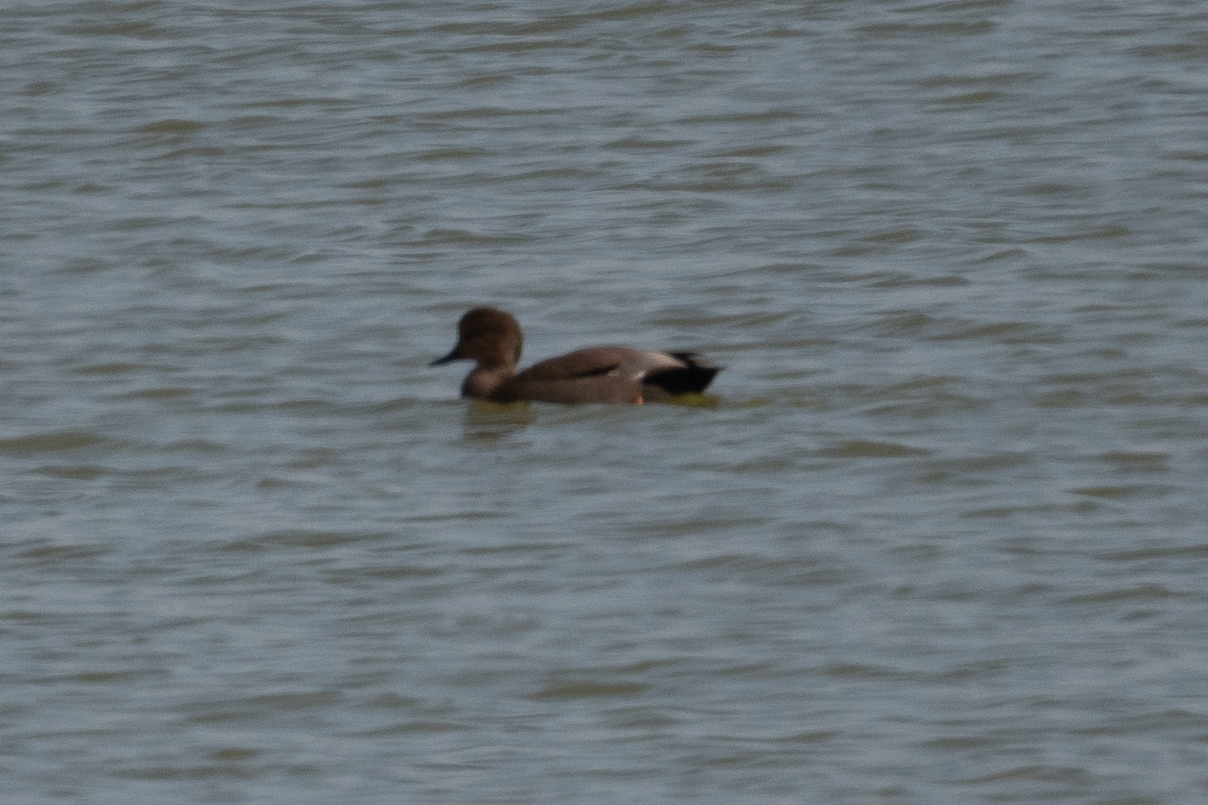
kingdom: Animalia
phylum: Chordata
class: Aves
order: Anseriformes
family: Anatidae
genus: Mareca
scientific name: Mareca strepera
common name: Gadwall
